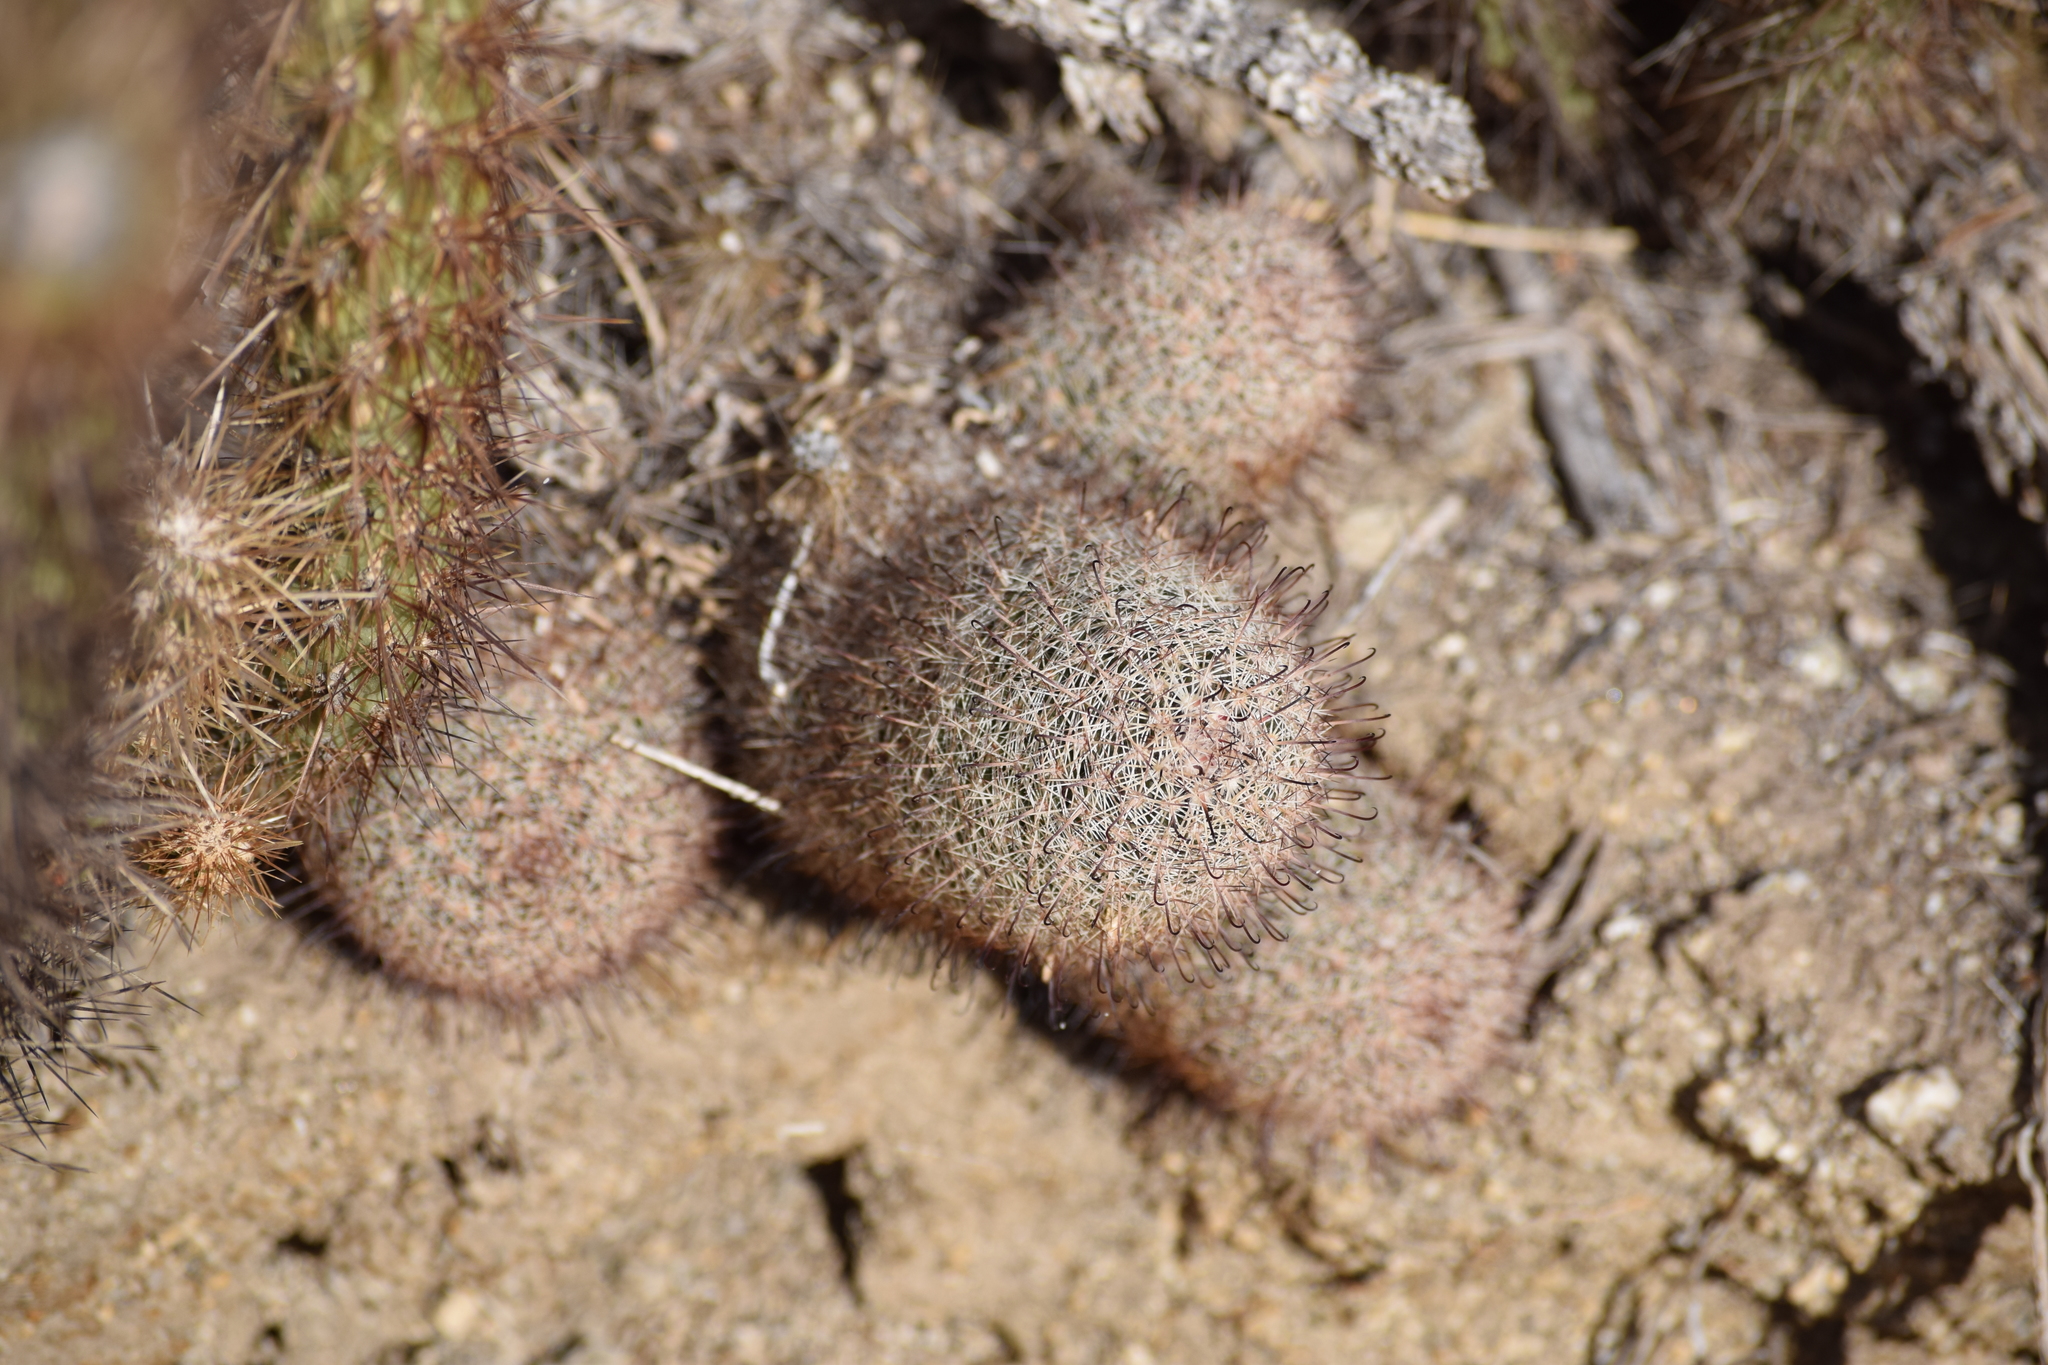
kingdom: Plantae
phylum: Tracheophyta
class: Magnoliopsida
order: Caryophyllales
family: Cactaceae
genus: Cochemiea
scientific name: Cochemiea dioica
